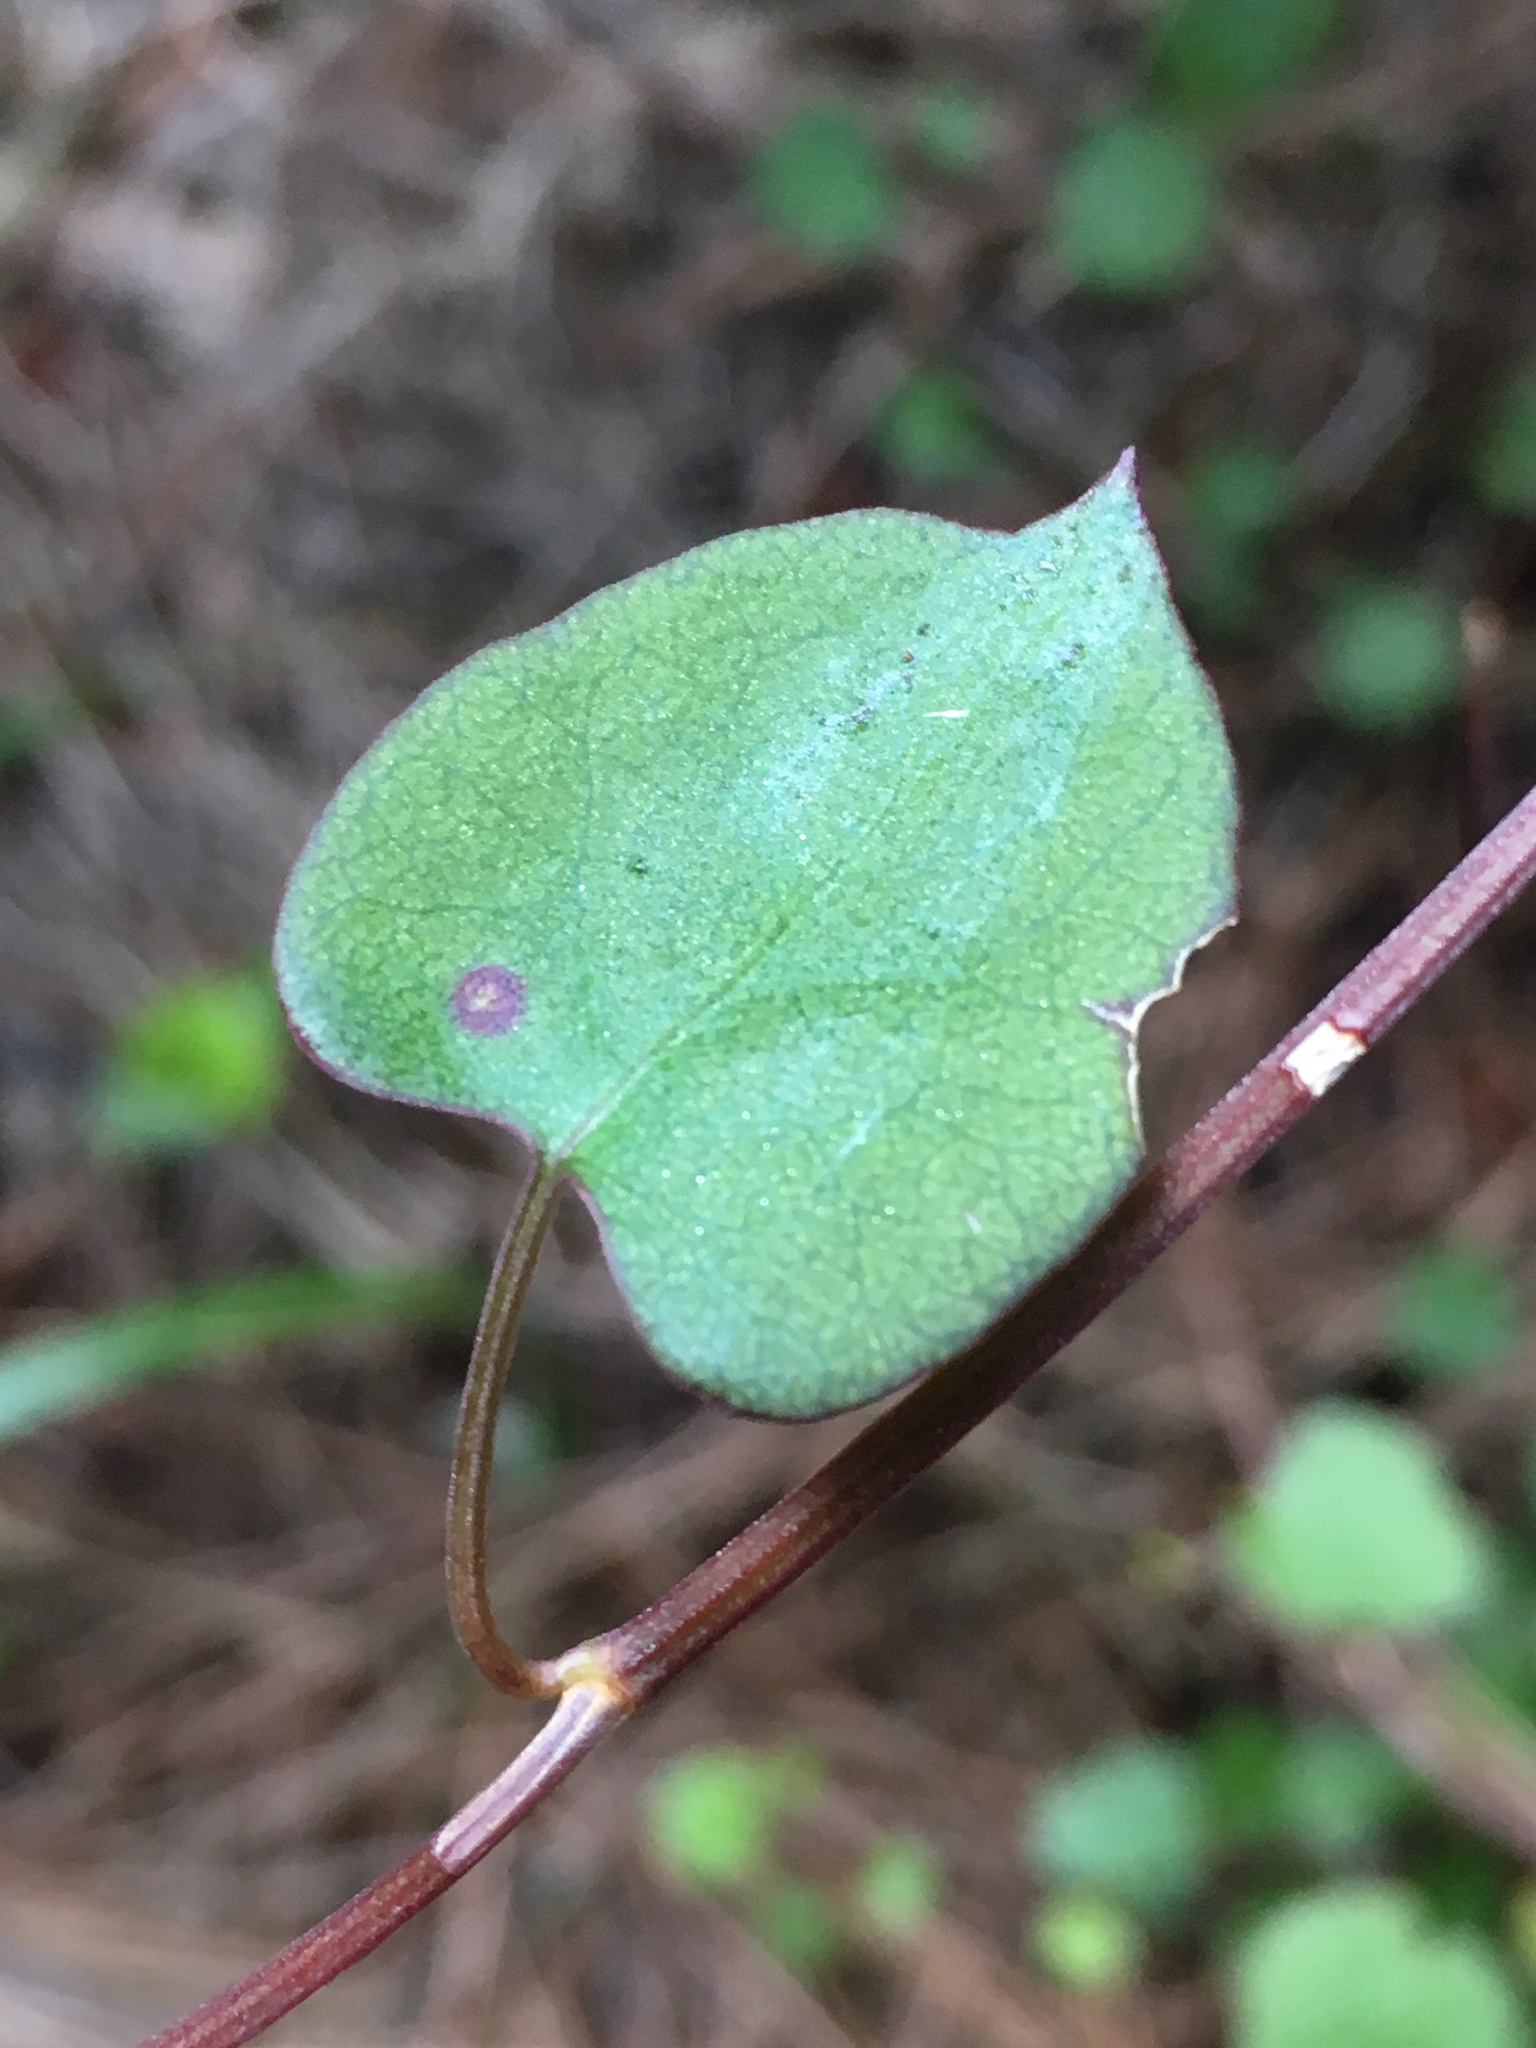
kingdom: Plantae
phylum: Tracheophyta
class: Magnoliopsida
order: Caryophyllales
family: Polygonaceae
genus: Muehlenbeckia
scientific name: Muehlenbeckia australis
